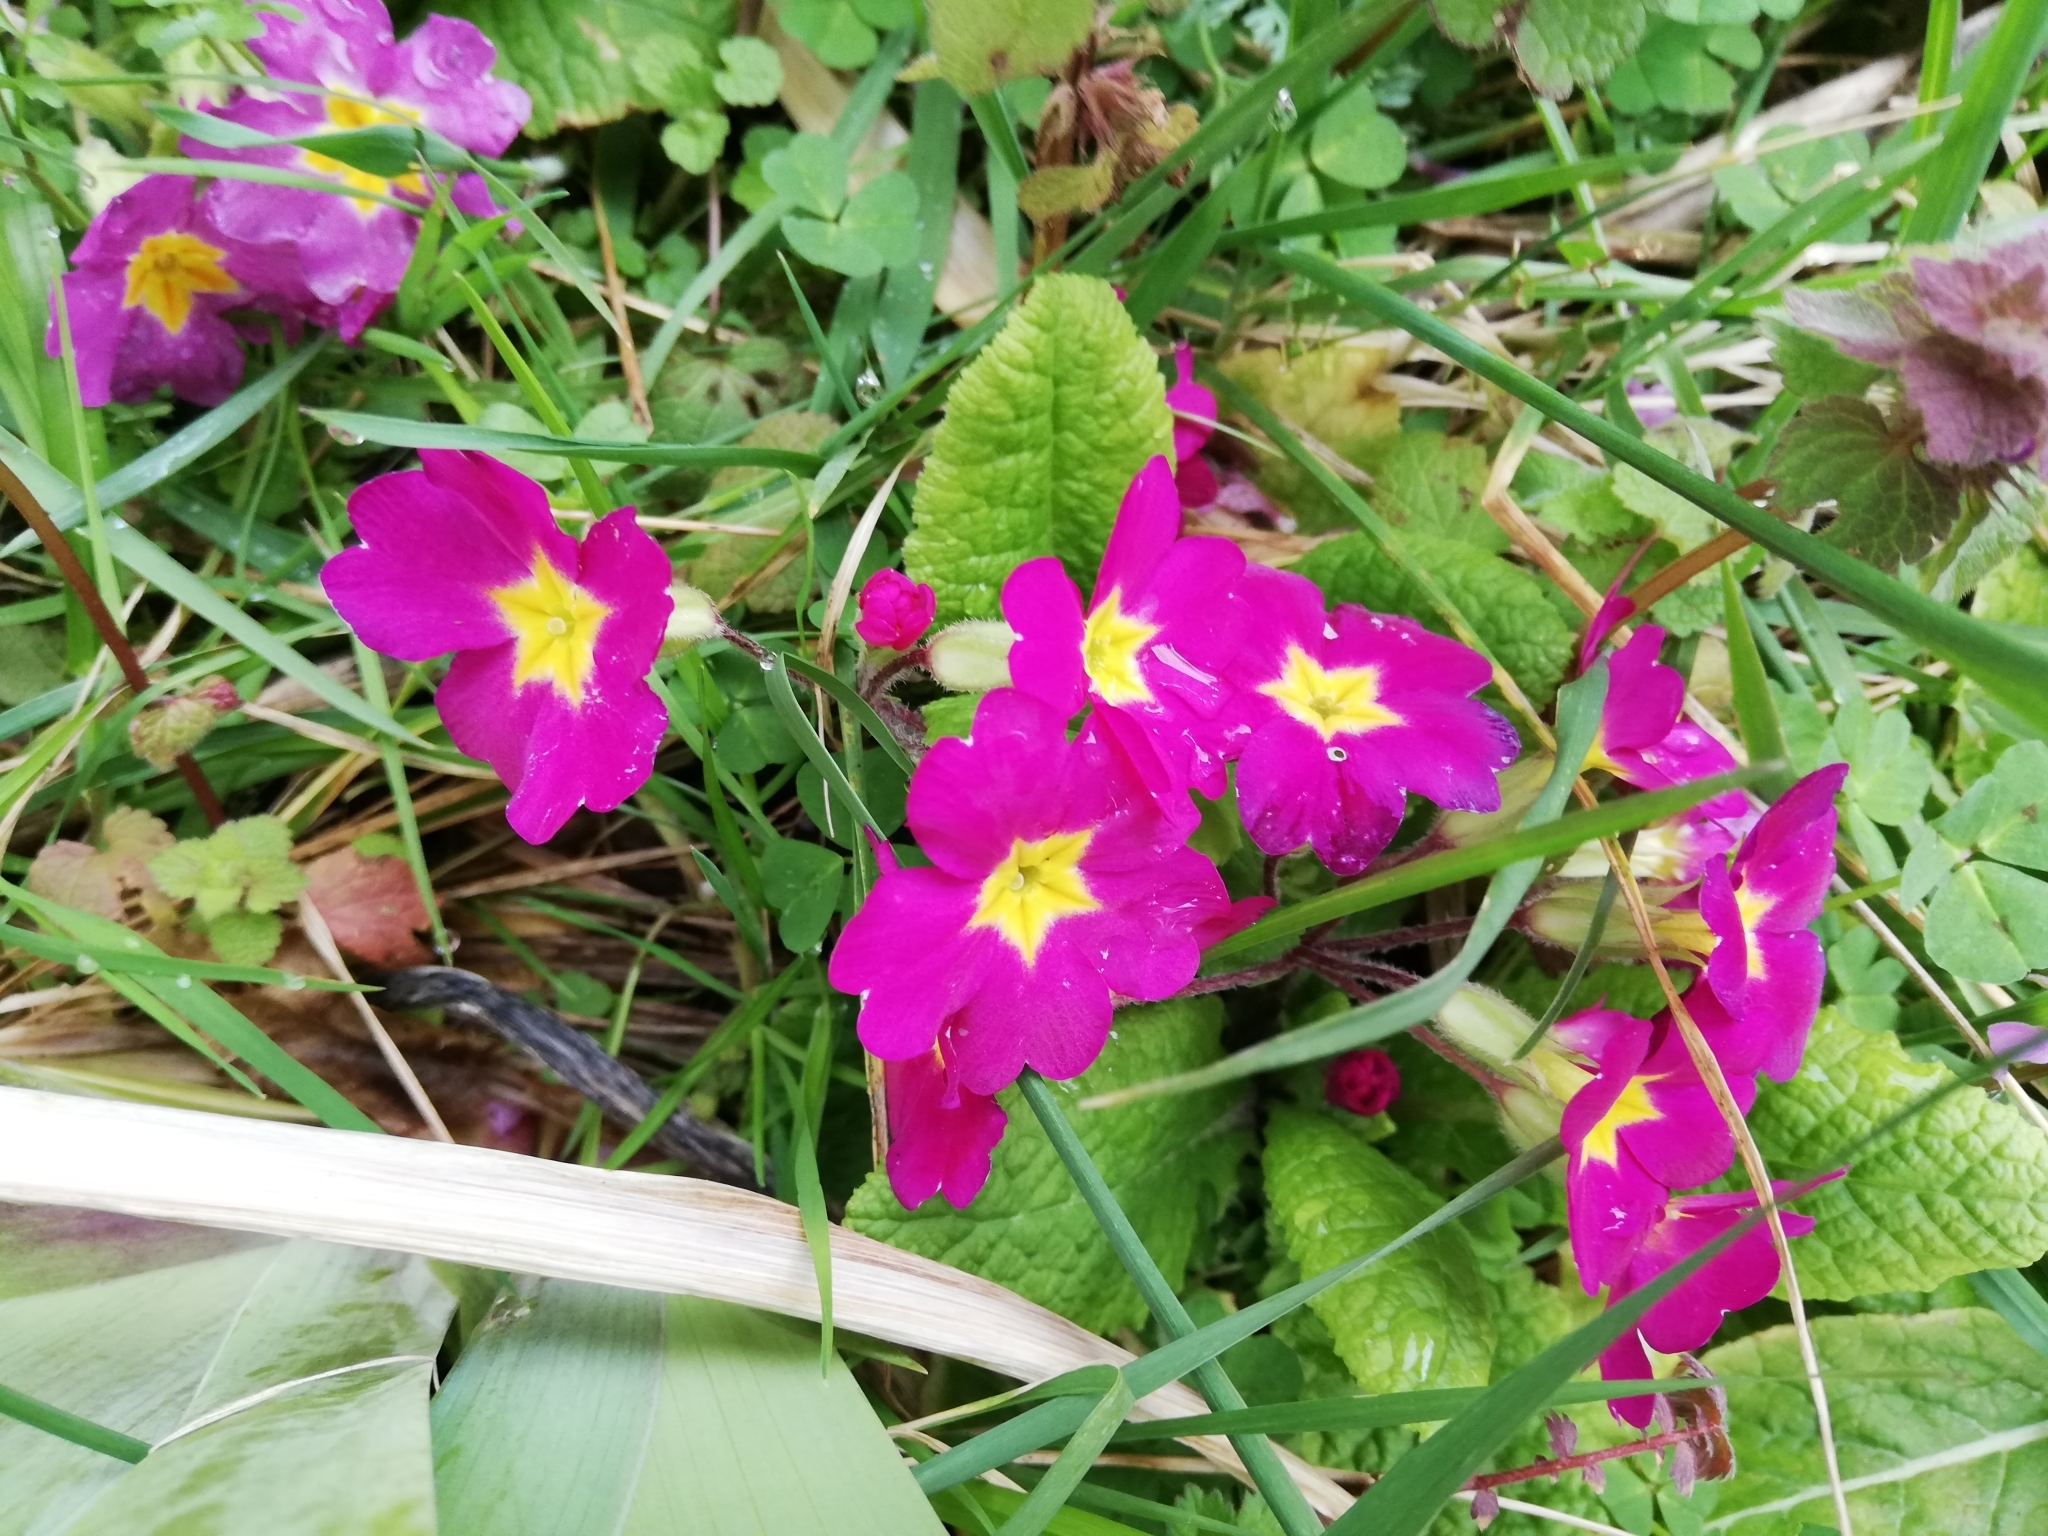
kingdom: Plantae
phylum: Tracheophyta
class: Magnoliopsida
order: Ericales
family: Primulaceae
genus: Primula
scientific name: Primula vulgaris
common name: Primrose
